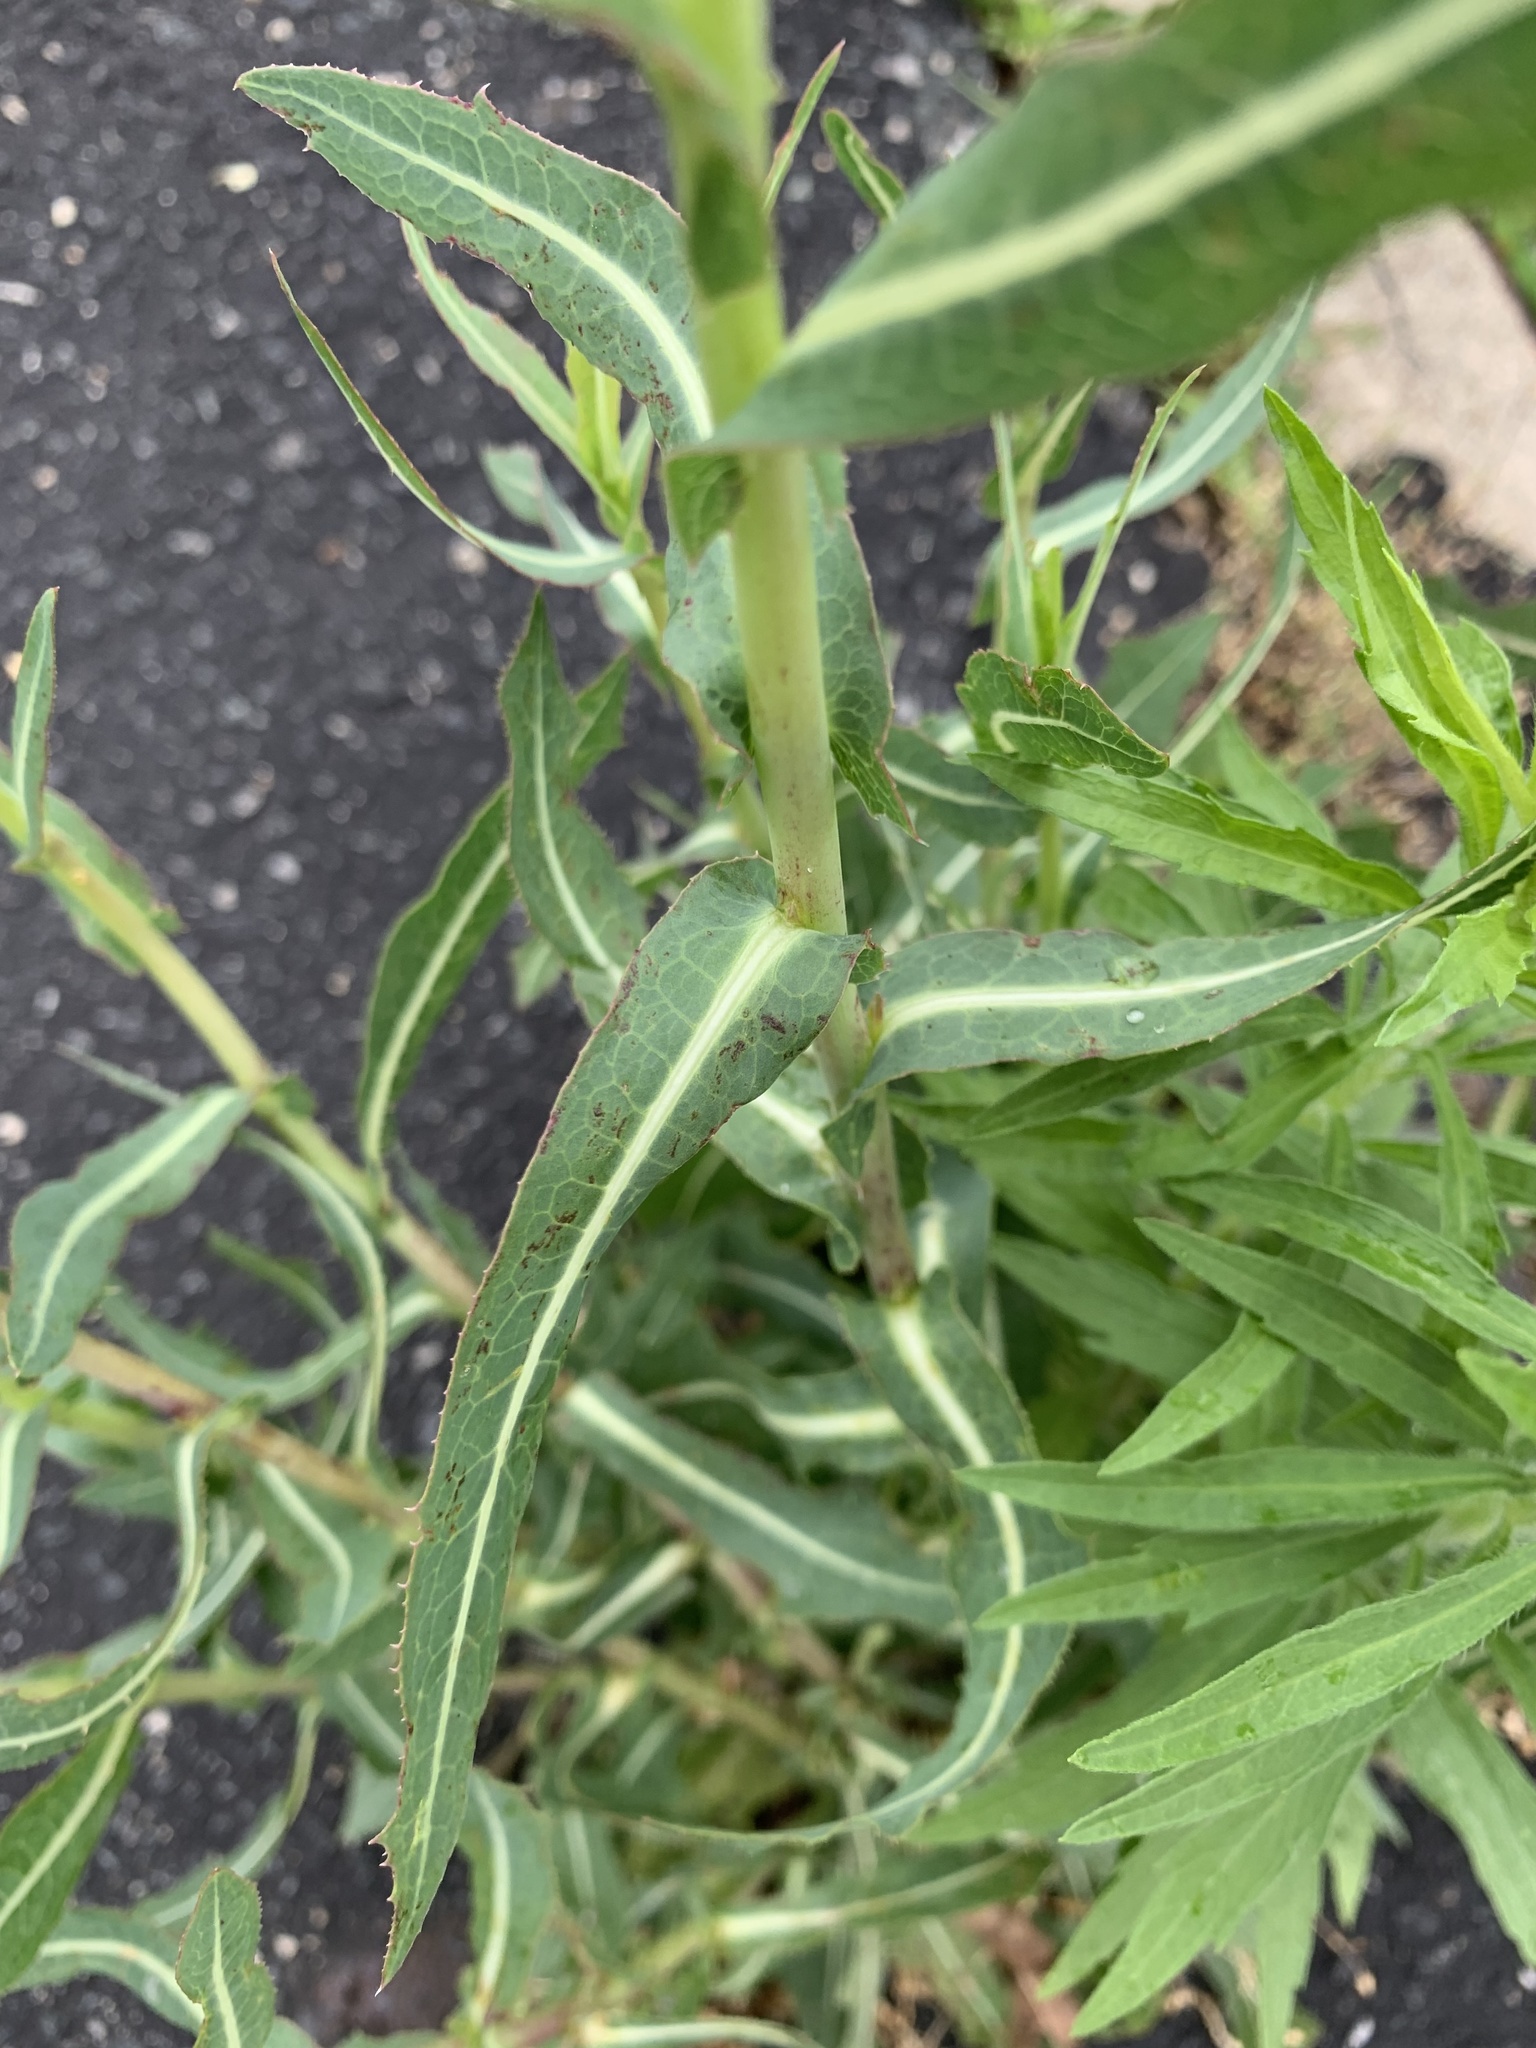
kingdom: Plantae
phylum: Tracheophyta
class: Magnoliopsida
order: Asterales
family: Asteraceae
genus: Lactuca
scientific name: Lactuca serriola
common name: Prickly lettuce
